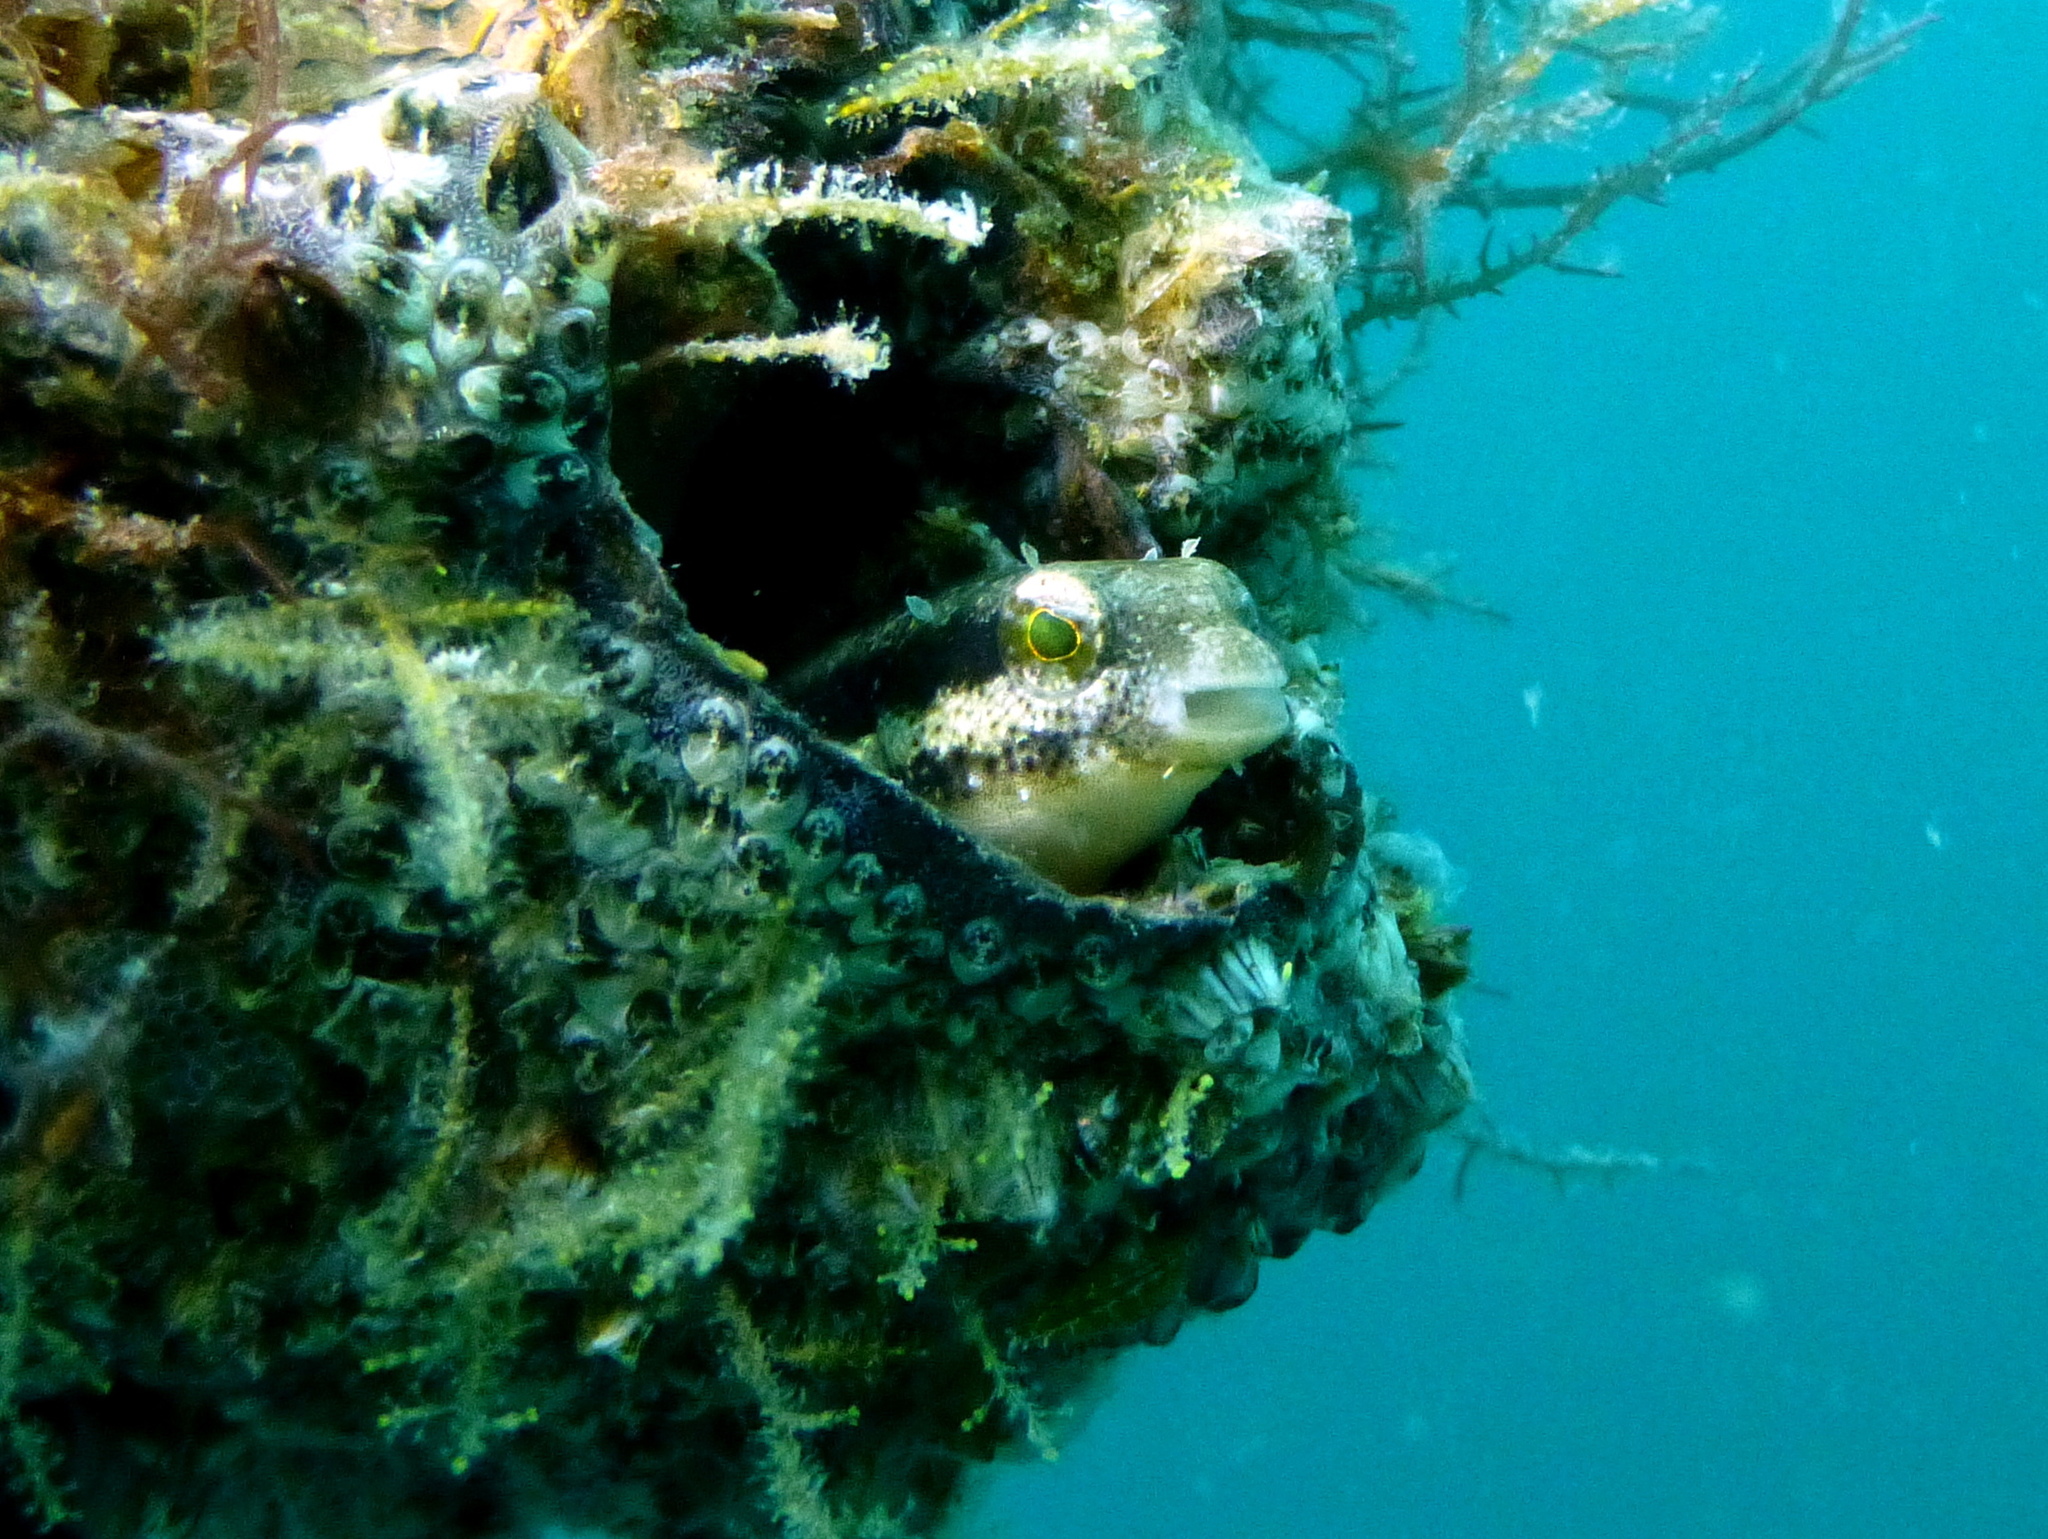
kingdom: Animalia
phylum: Chordata
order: Perciformes
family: Blenniidae
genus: Petroscirtes
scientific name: Petroscirtes breviceps
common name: Short-head sabretooth blenny
